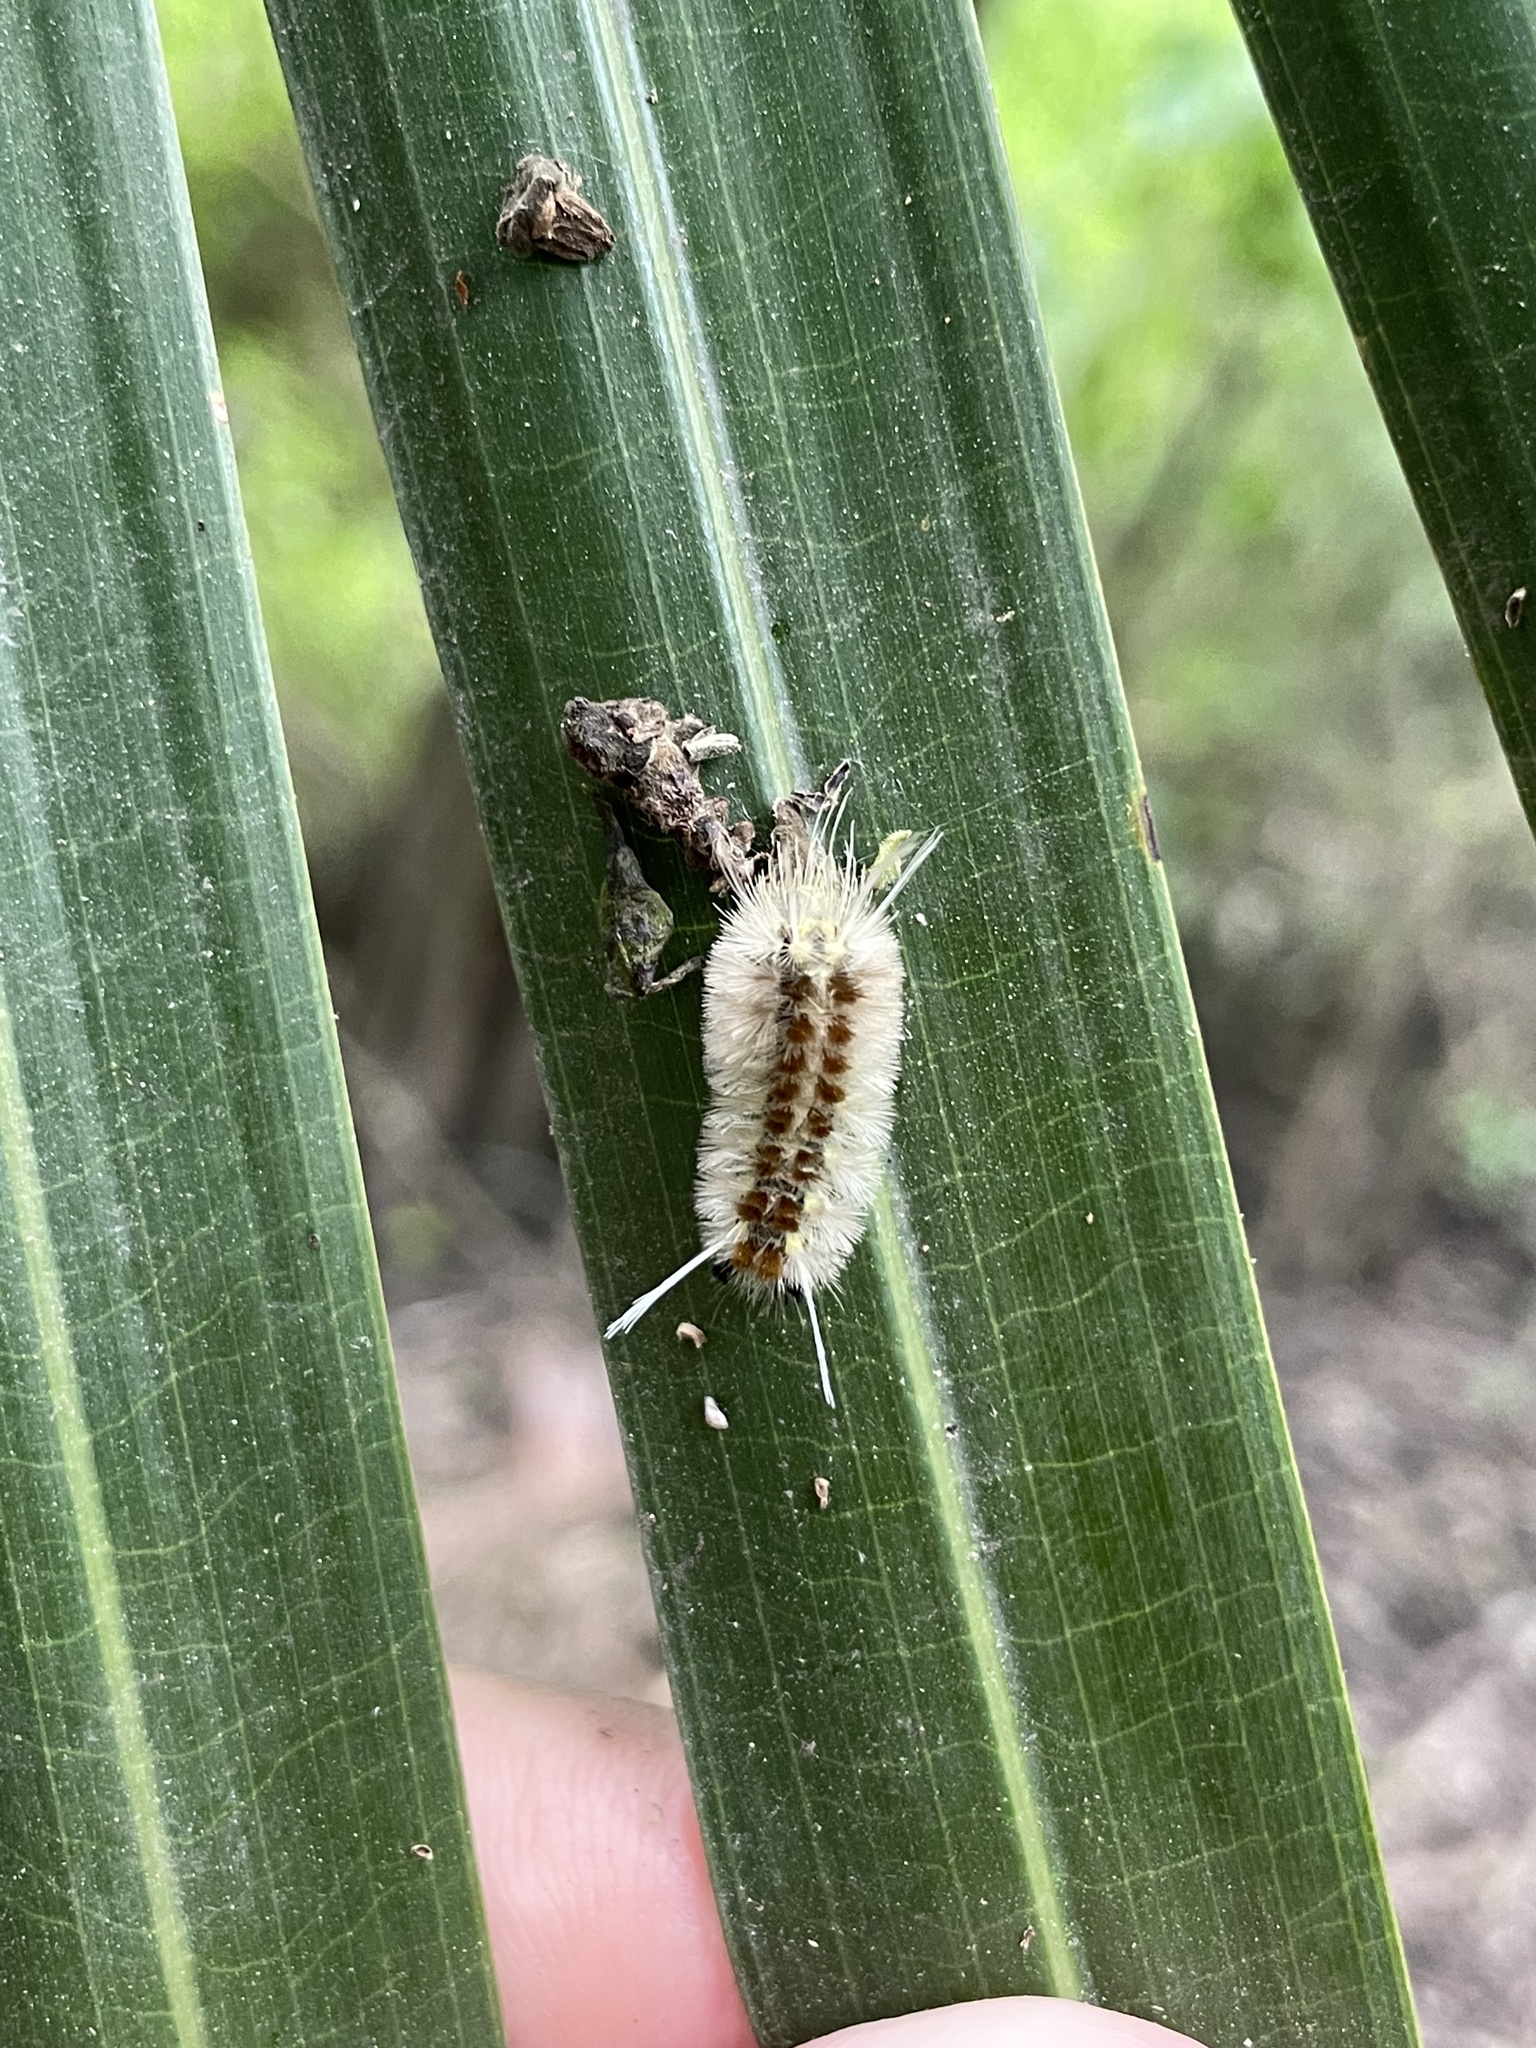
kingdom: Animalia
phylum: Arthropoda
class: Insecta
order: Lepidoptera
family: Erebidae
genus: Lophocampa
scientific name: Lophocampa annulosa
